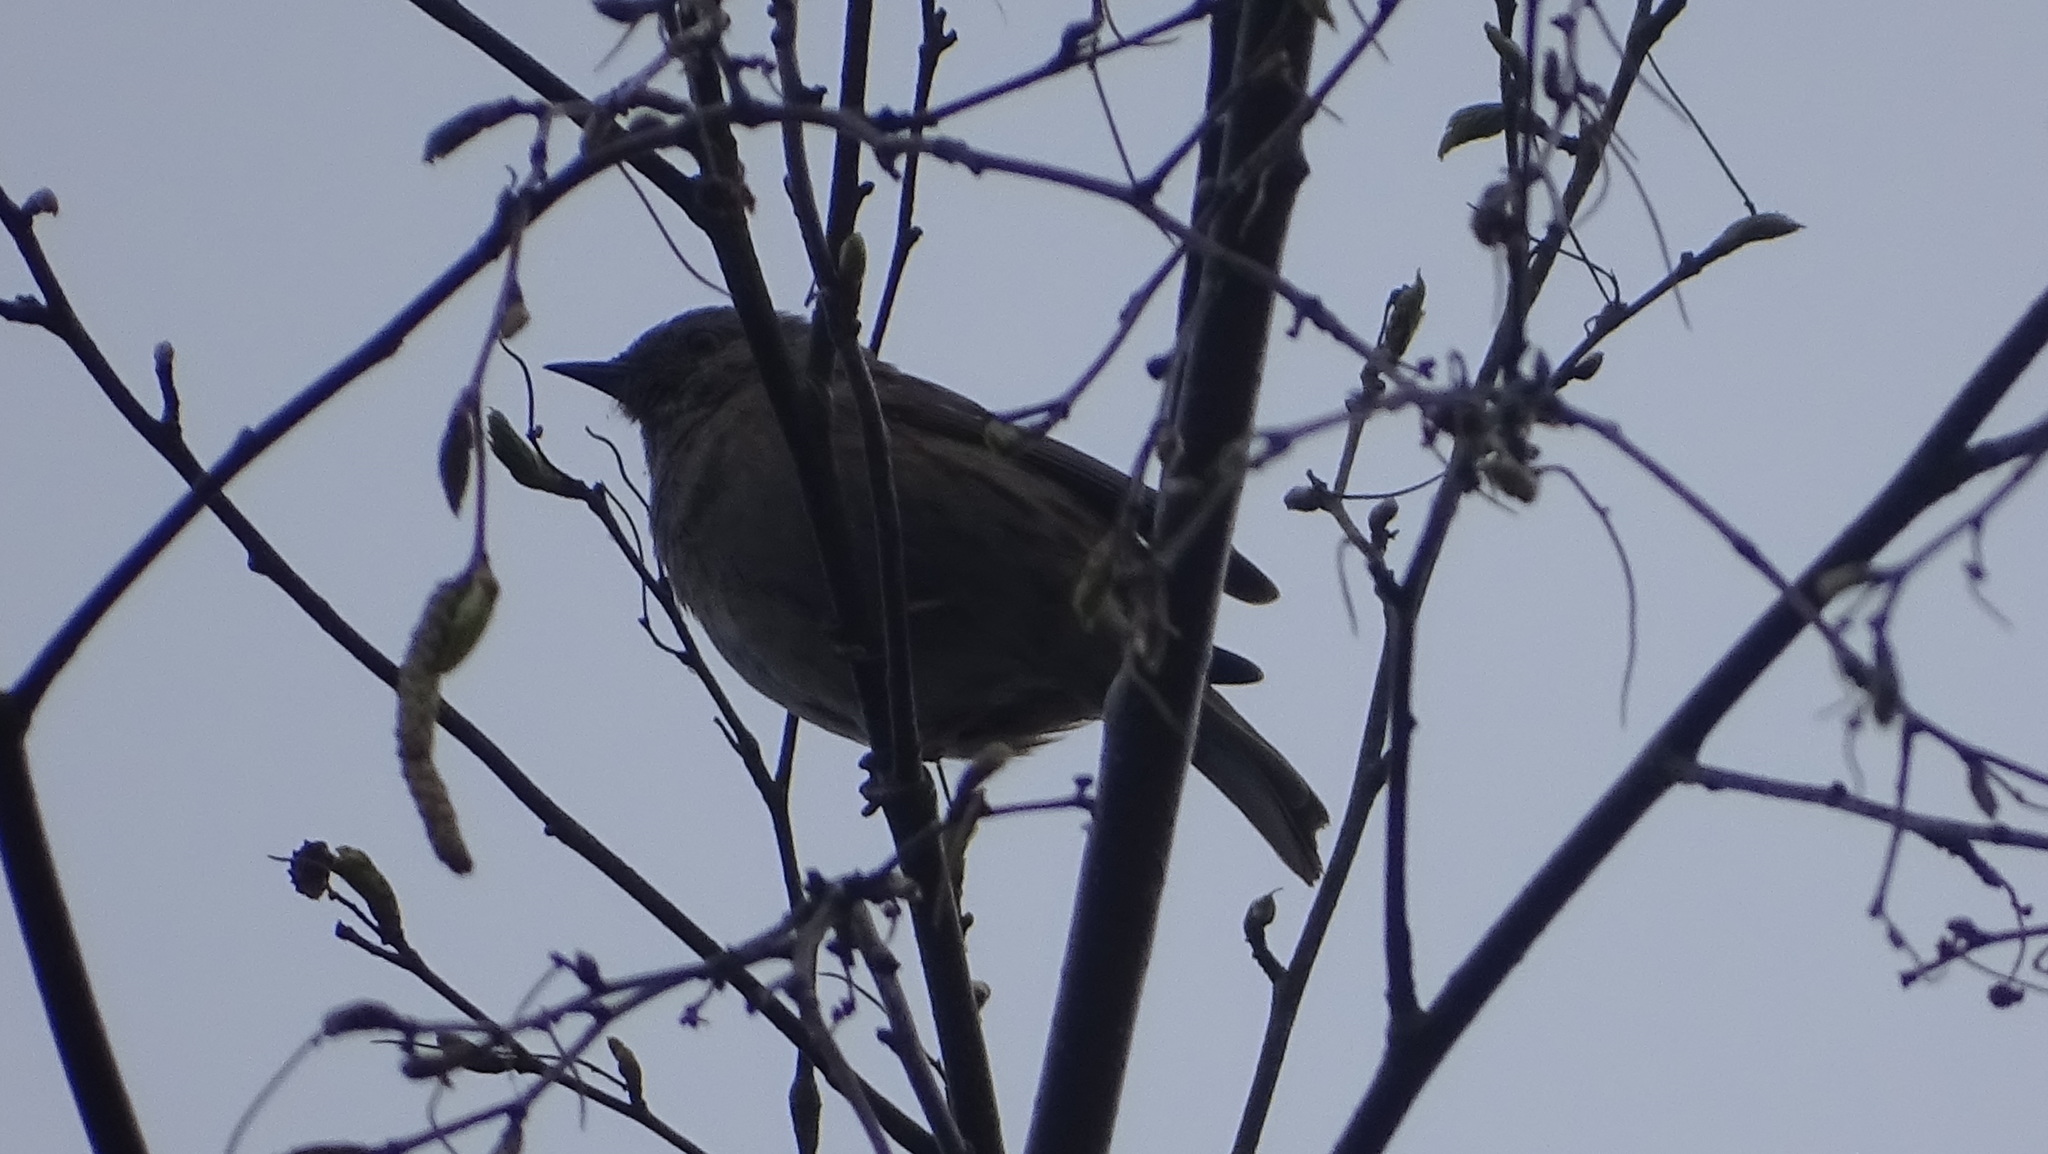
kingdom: Animalia
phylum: Chordata
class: Aves
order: Passeriformes
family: Prunellidae
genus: Prunella
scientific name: Prunella modularis
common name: Dunnock
